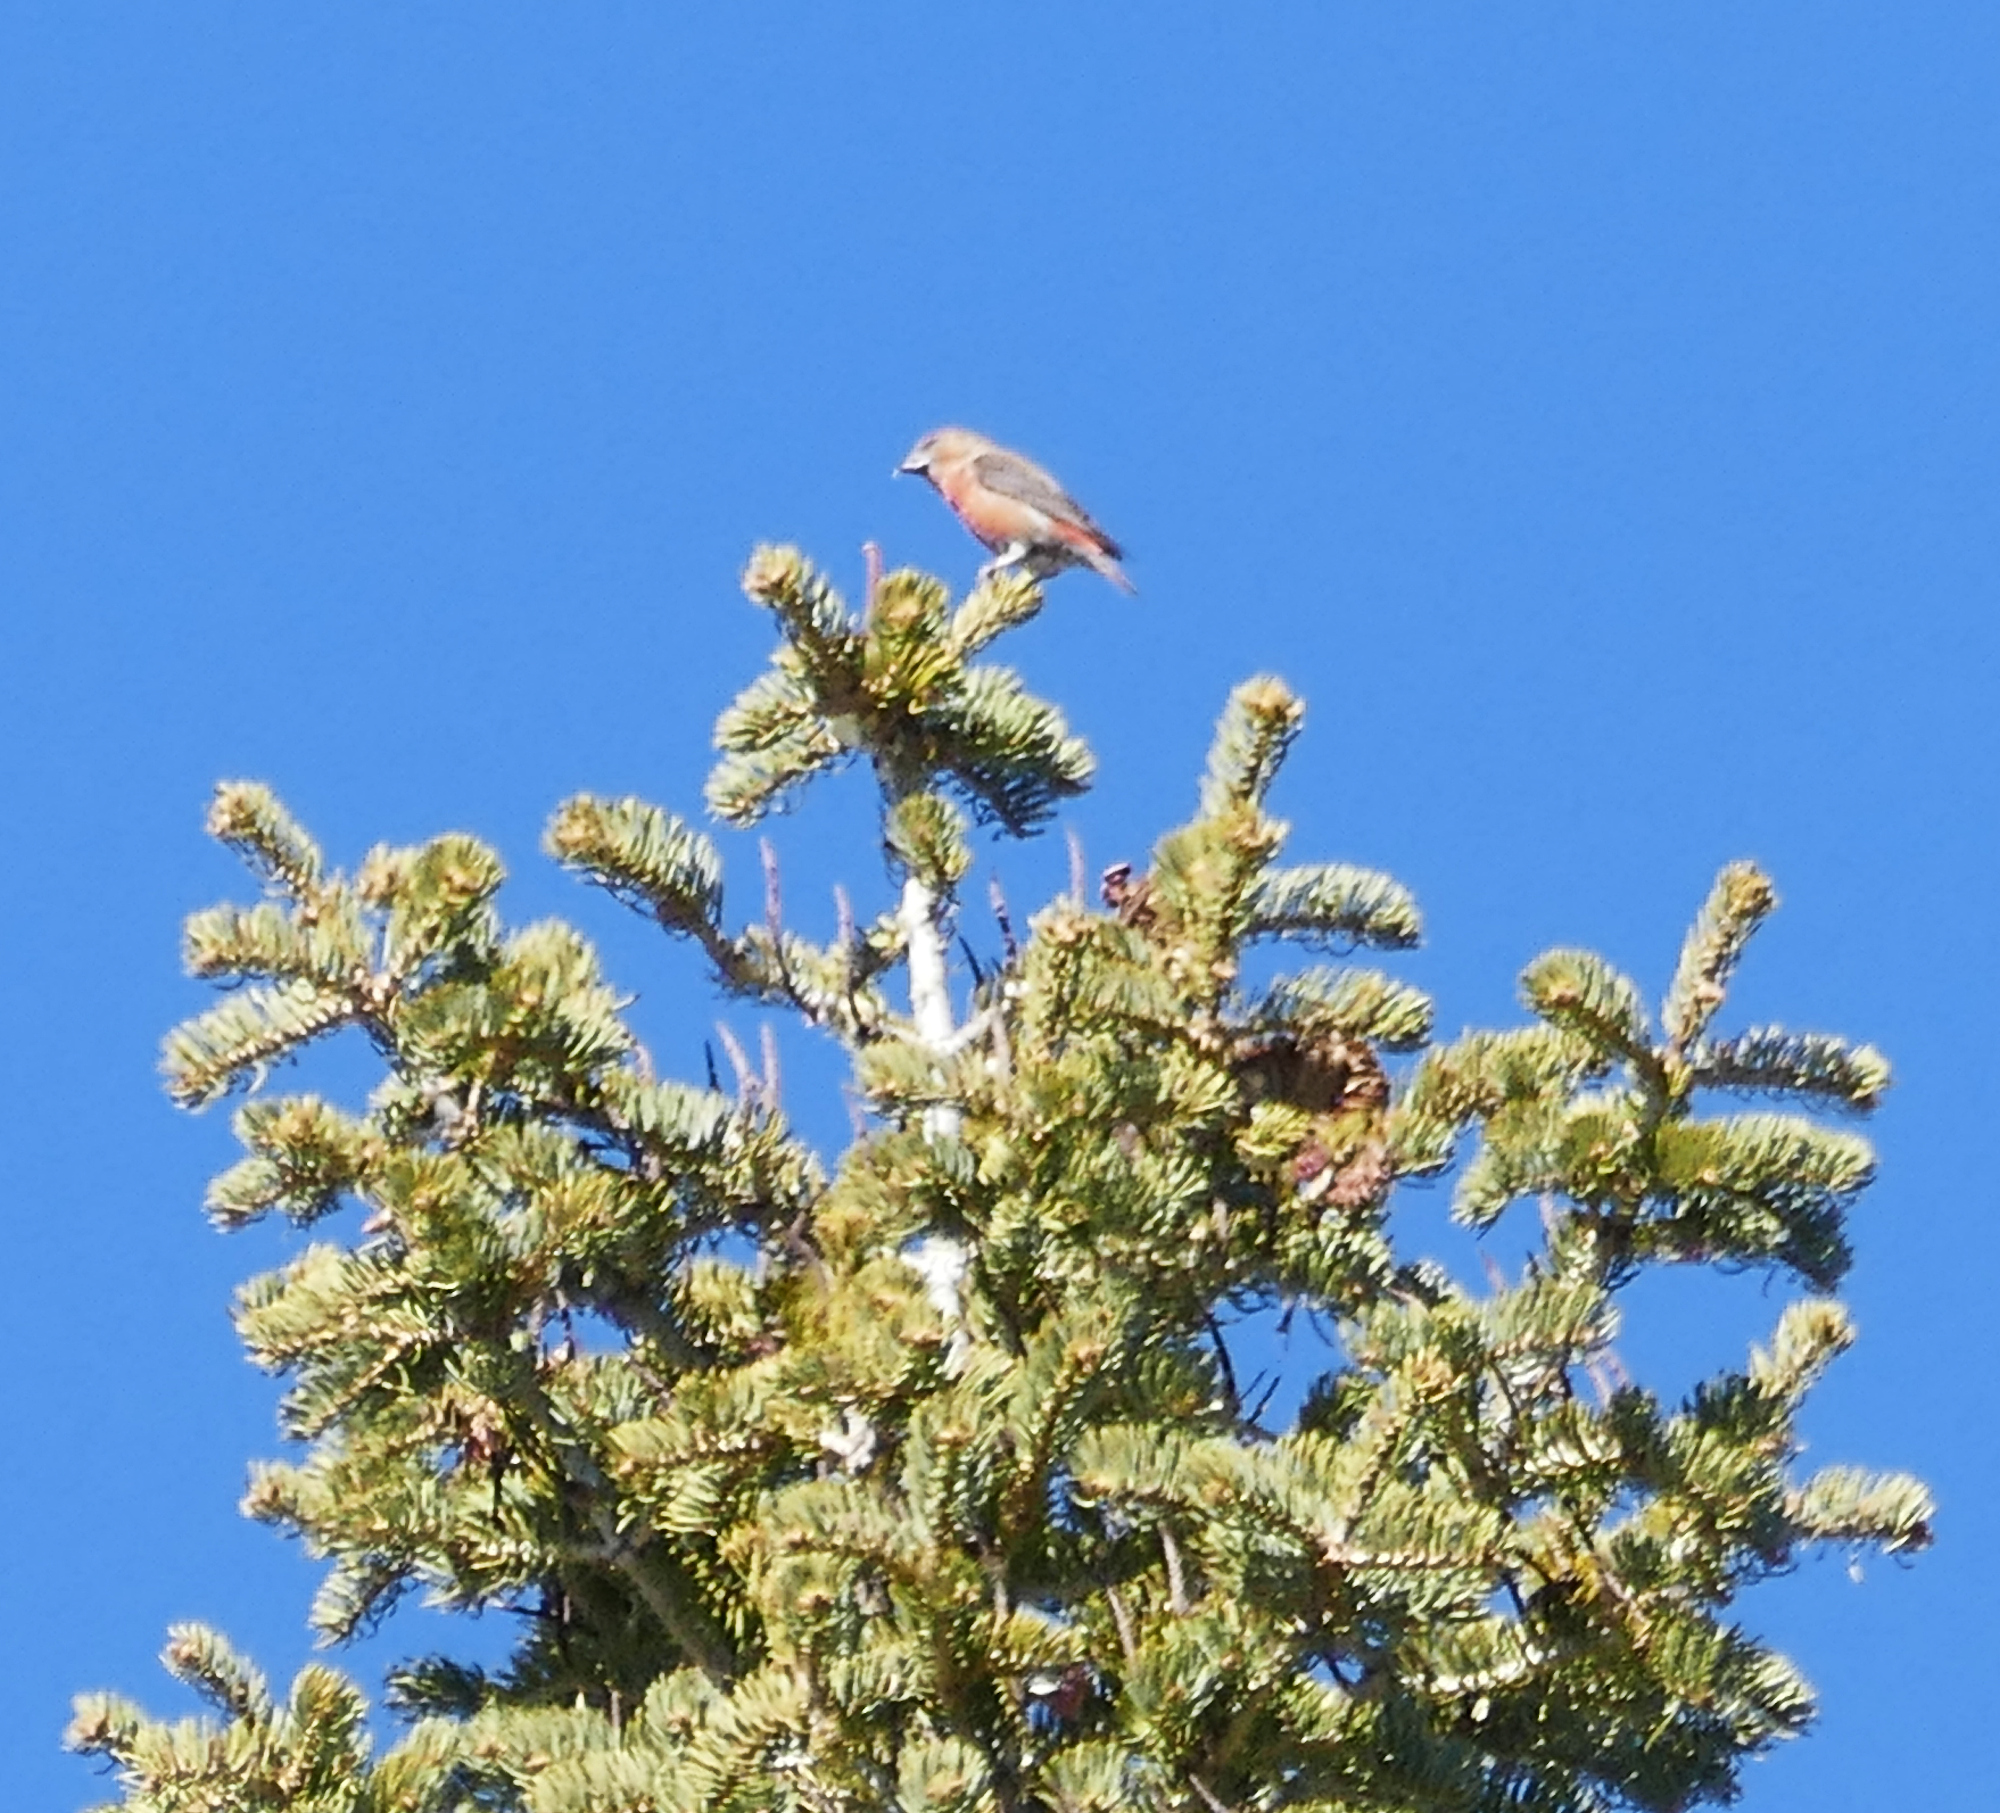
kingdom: Animalia
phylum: Chordata
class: Aves
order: Passeriformes
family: Fringillidae
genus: Loxia
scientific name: Loxia curvirostra
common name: Red crossbill
